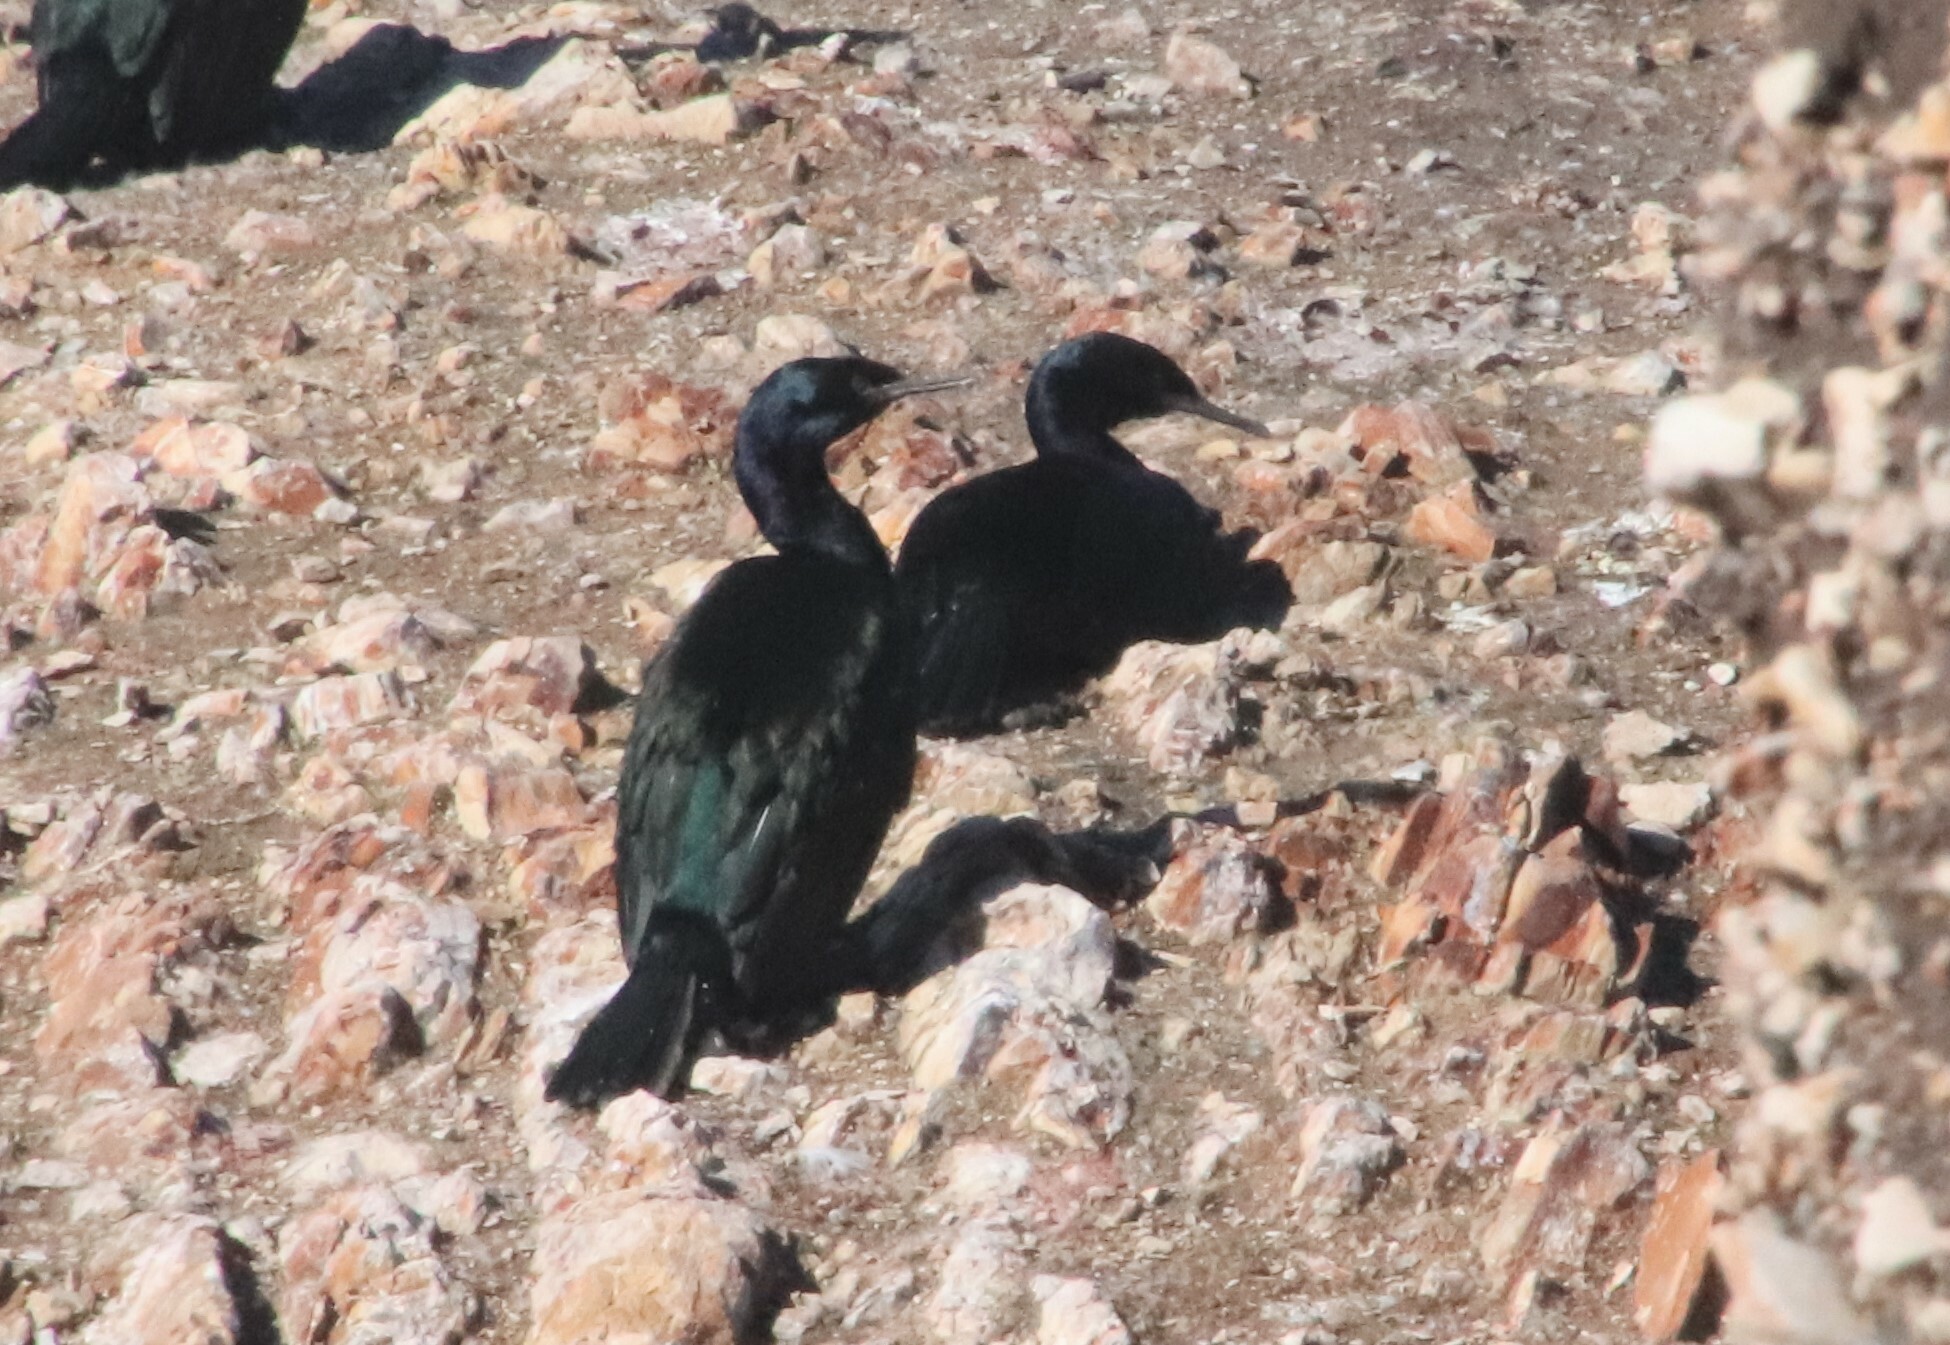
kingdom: Animalia
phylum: Chordata
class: Aves
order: Suliformes
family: Phalacrocoracidae
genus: Phalacrocorax
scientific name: Phalacrocorax pelagicus
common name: Pelagic cormorant
